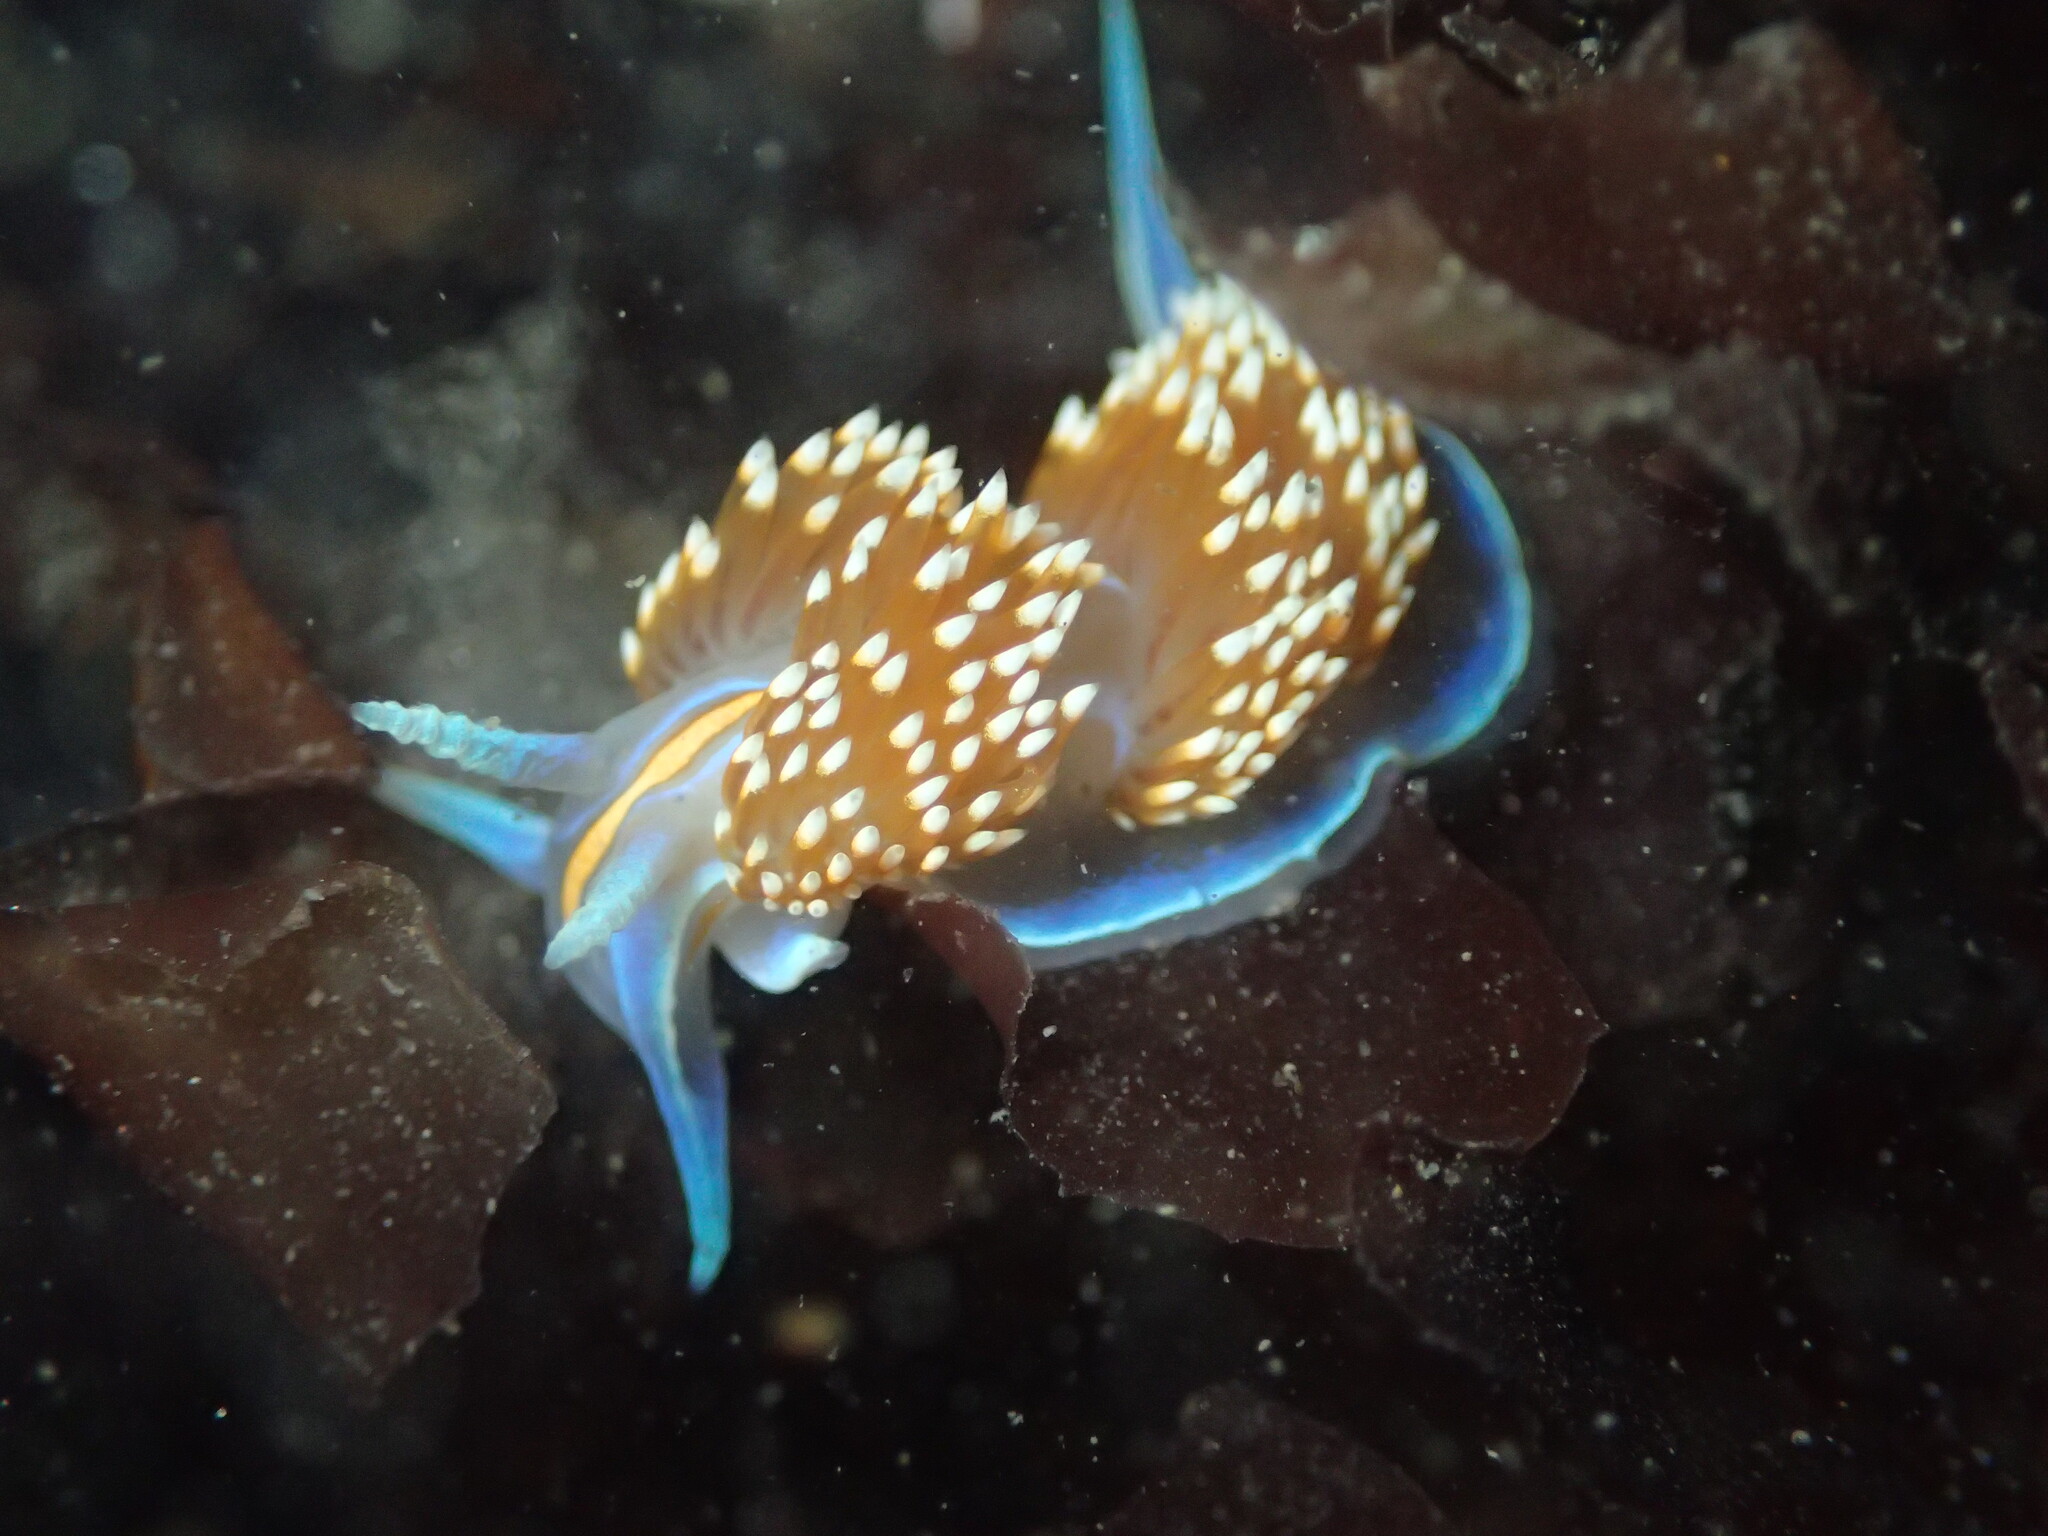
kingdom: Animalia
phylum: Mollusca
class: Gastropoda
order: Nudibranchia
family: Myrrhinidae
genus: Hermissenda
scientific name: Hermissenda opalescens
